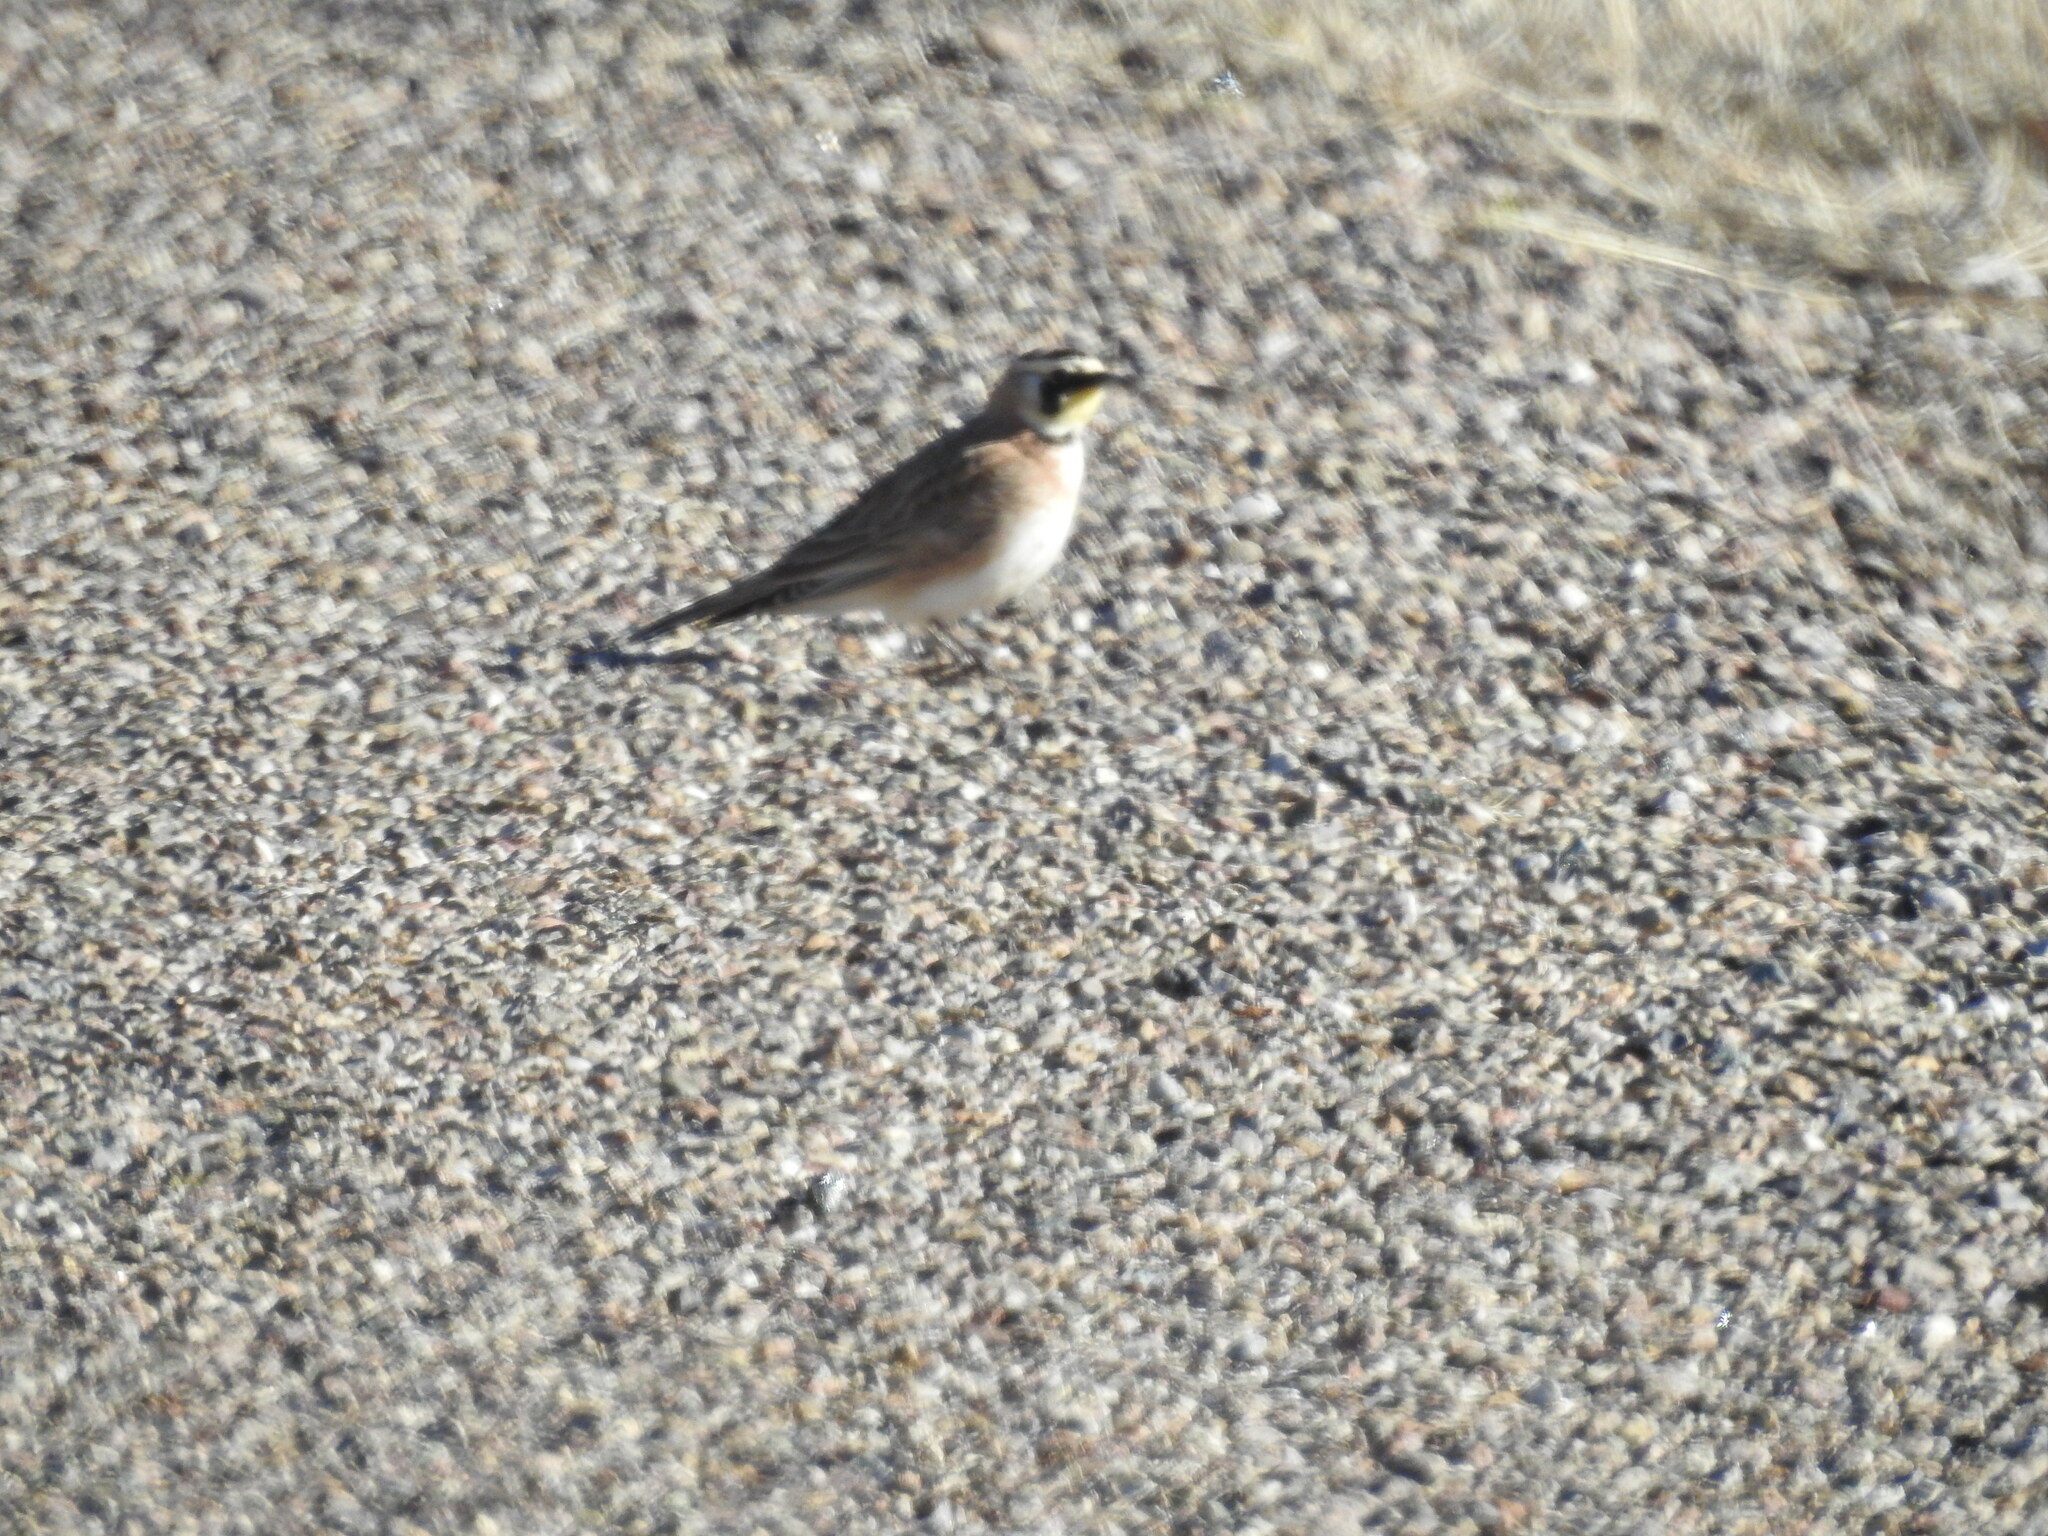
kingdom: Animalia
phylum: Chordata
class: Aves
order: Passeriformes
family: Alaudidae
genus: Eremophila
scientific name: Eremophila alpestris
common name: Horned lark
